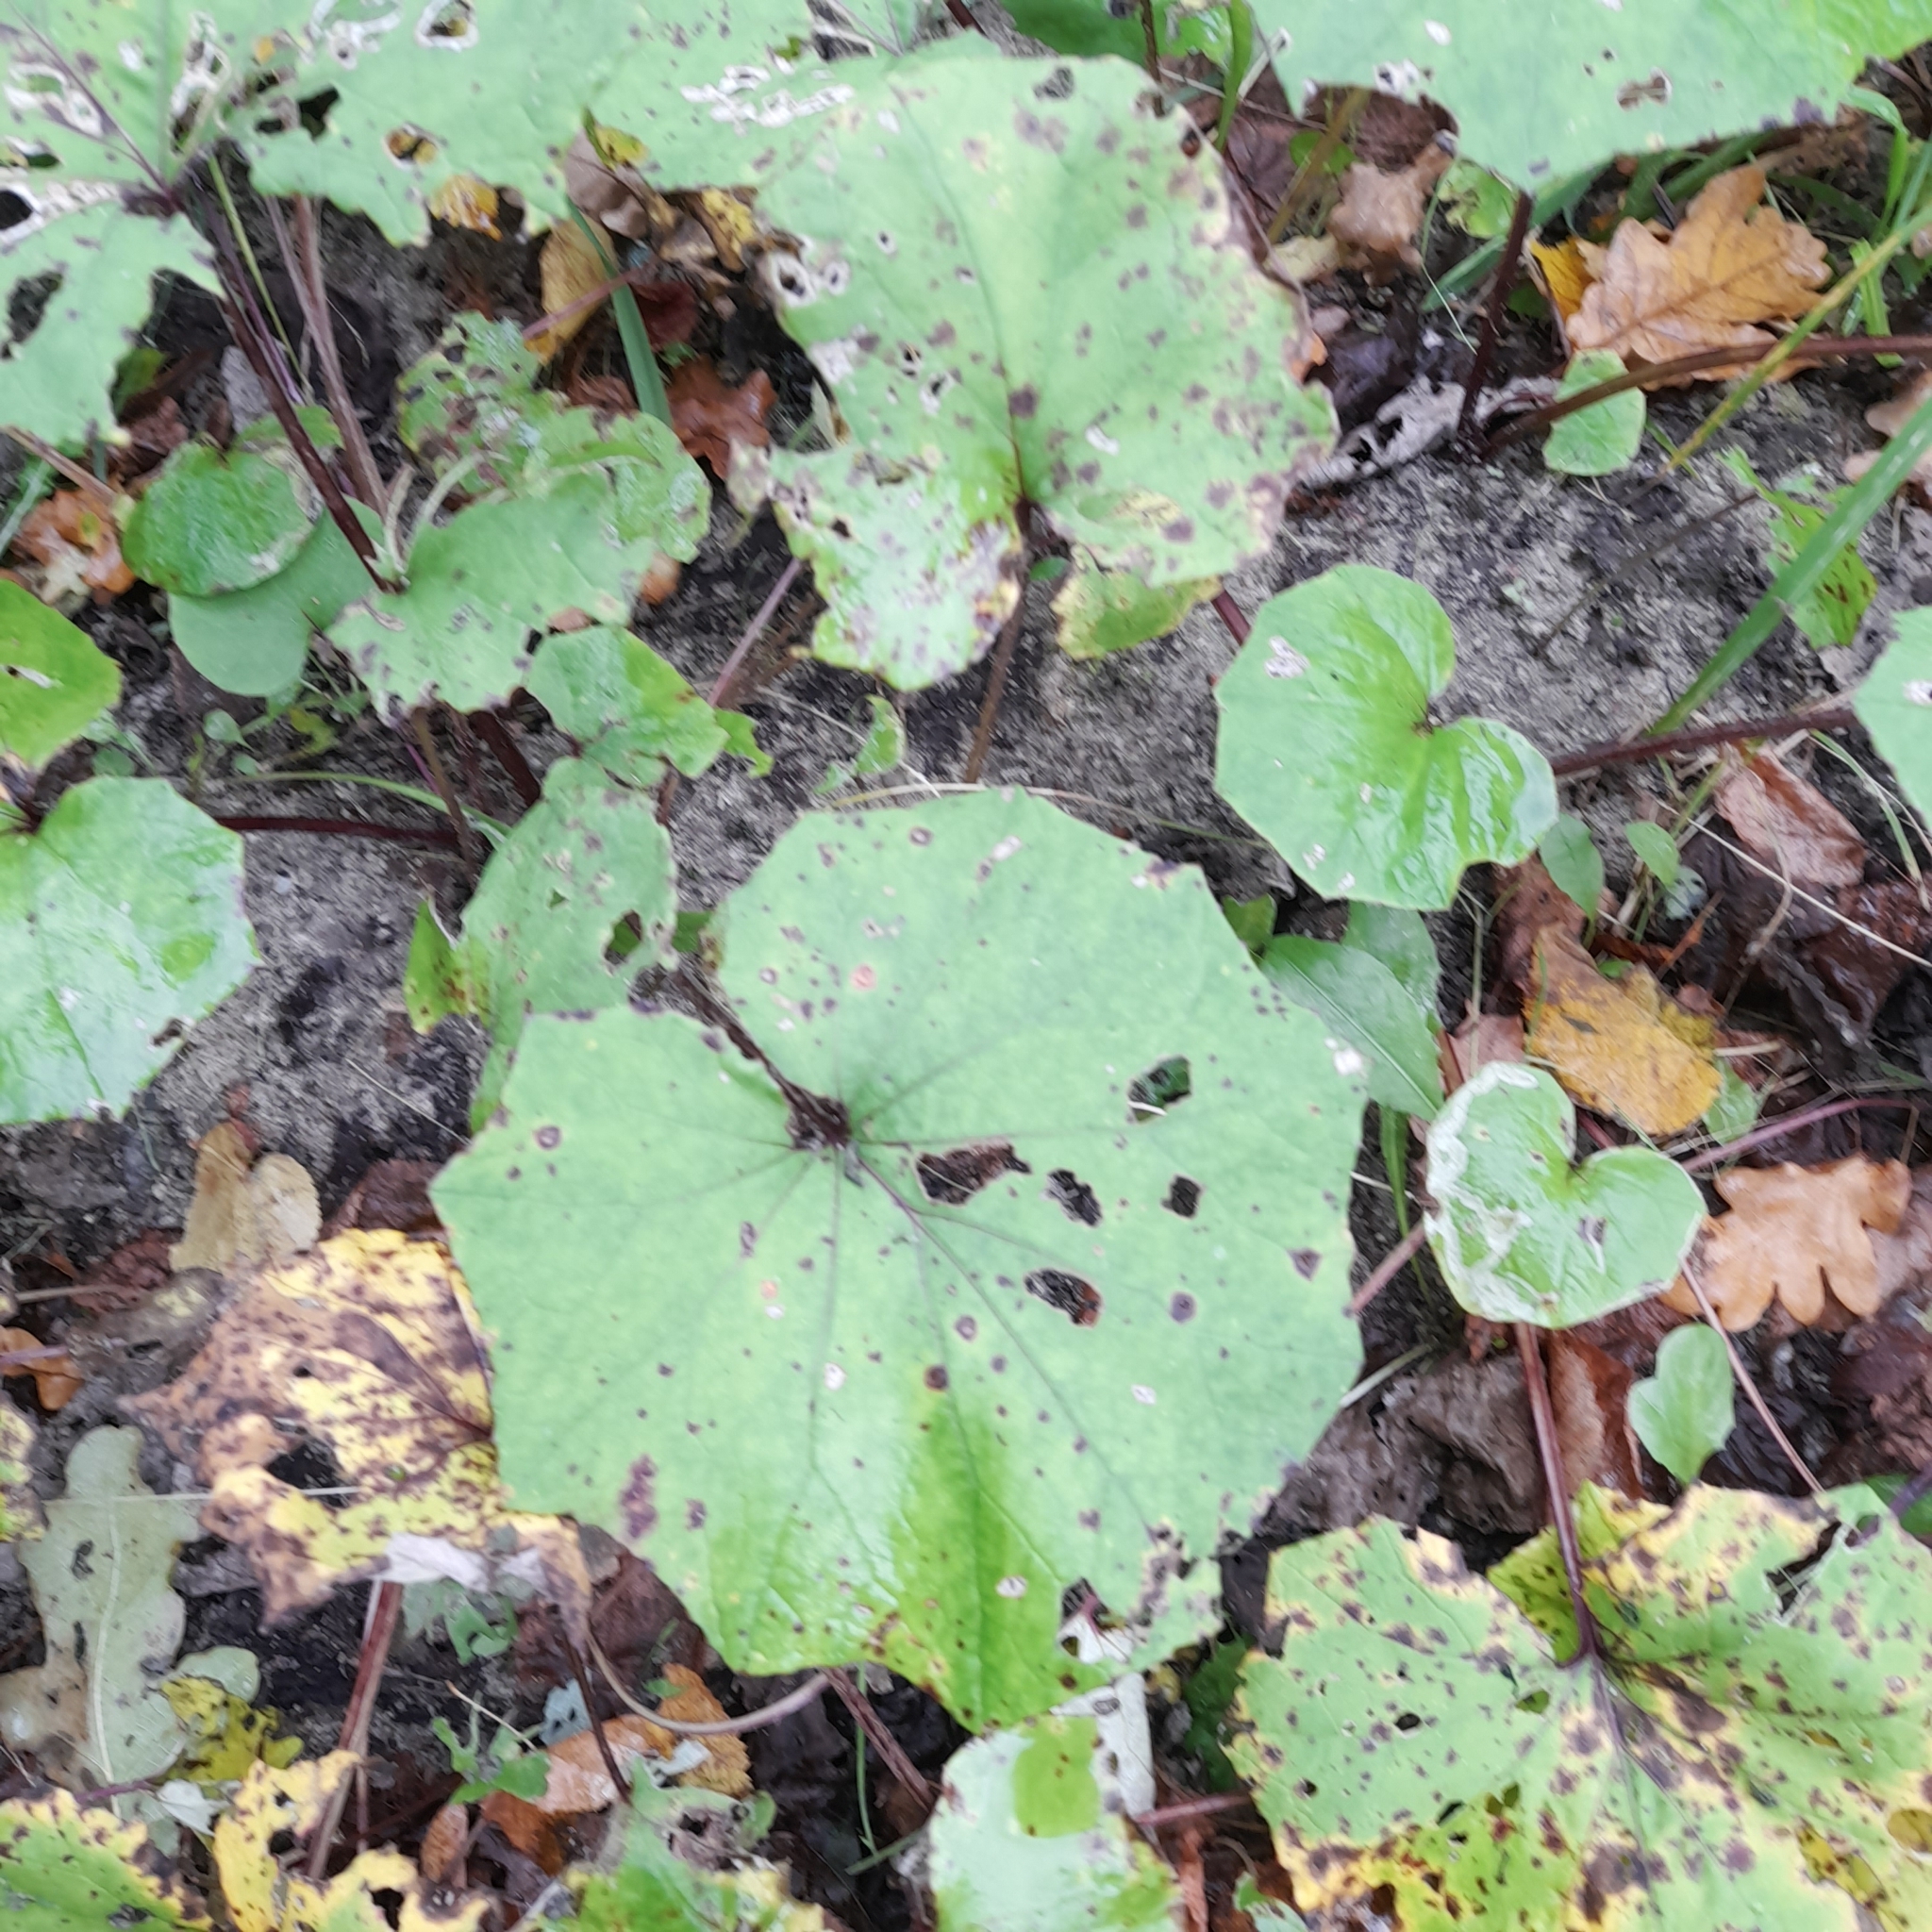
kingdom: Plantae
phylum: Tracheophyta
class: Magnoliopsida
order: Asterales
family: Asteraceae
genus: Tussilago
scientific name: Tussilago farfara
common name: Coltsfoot
